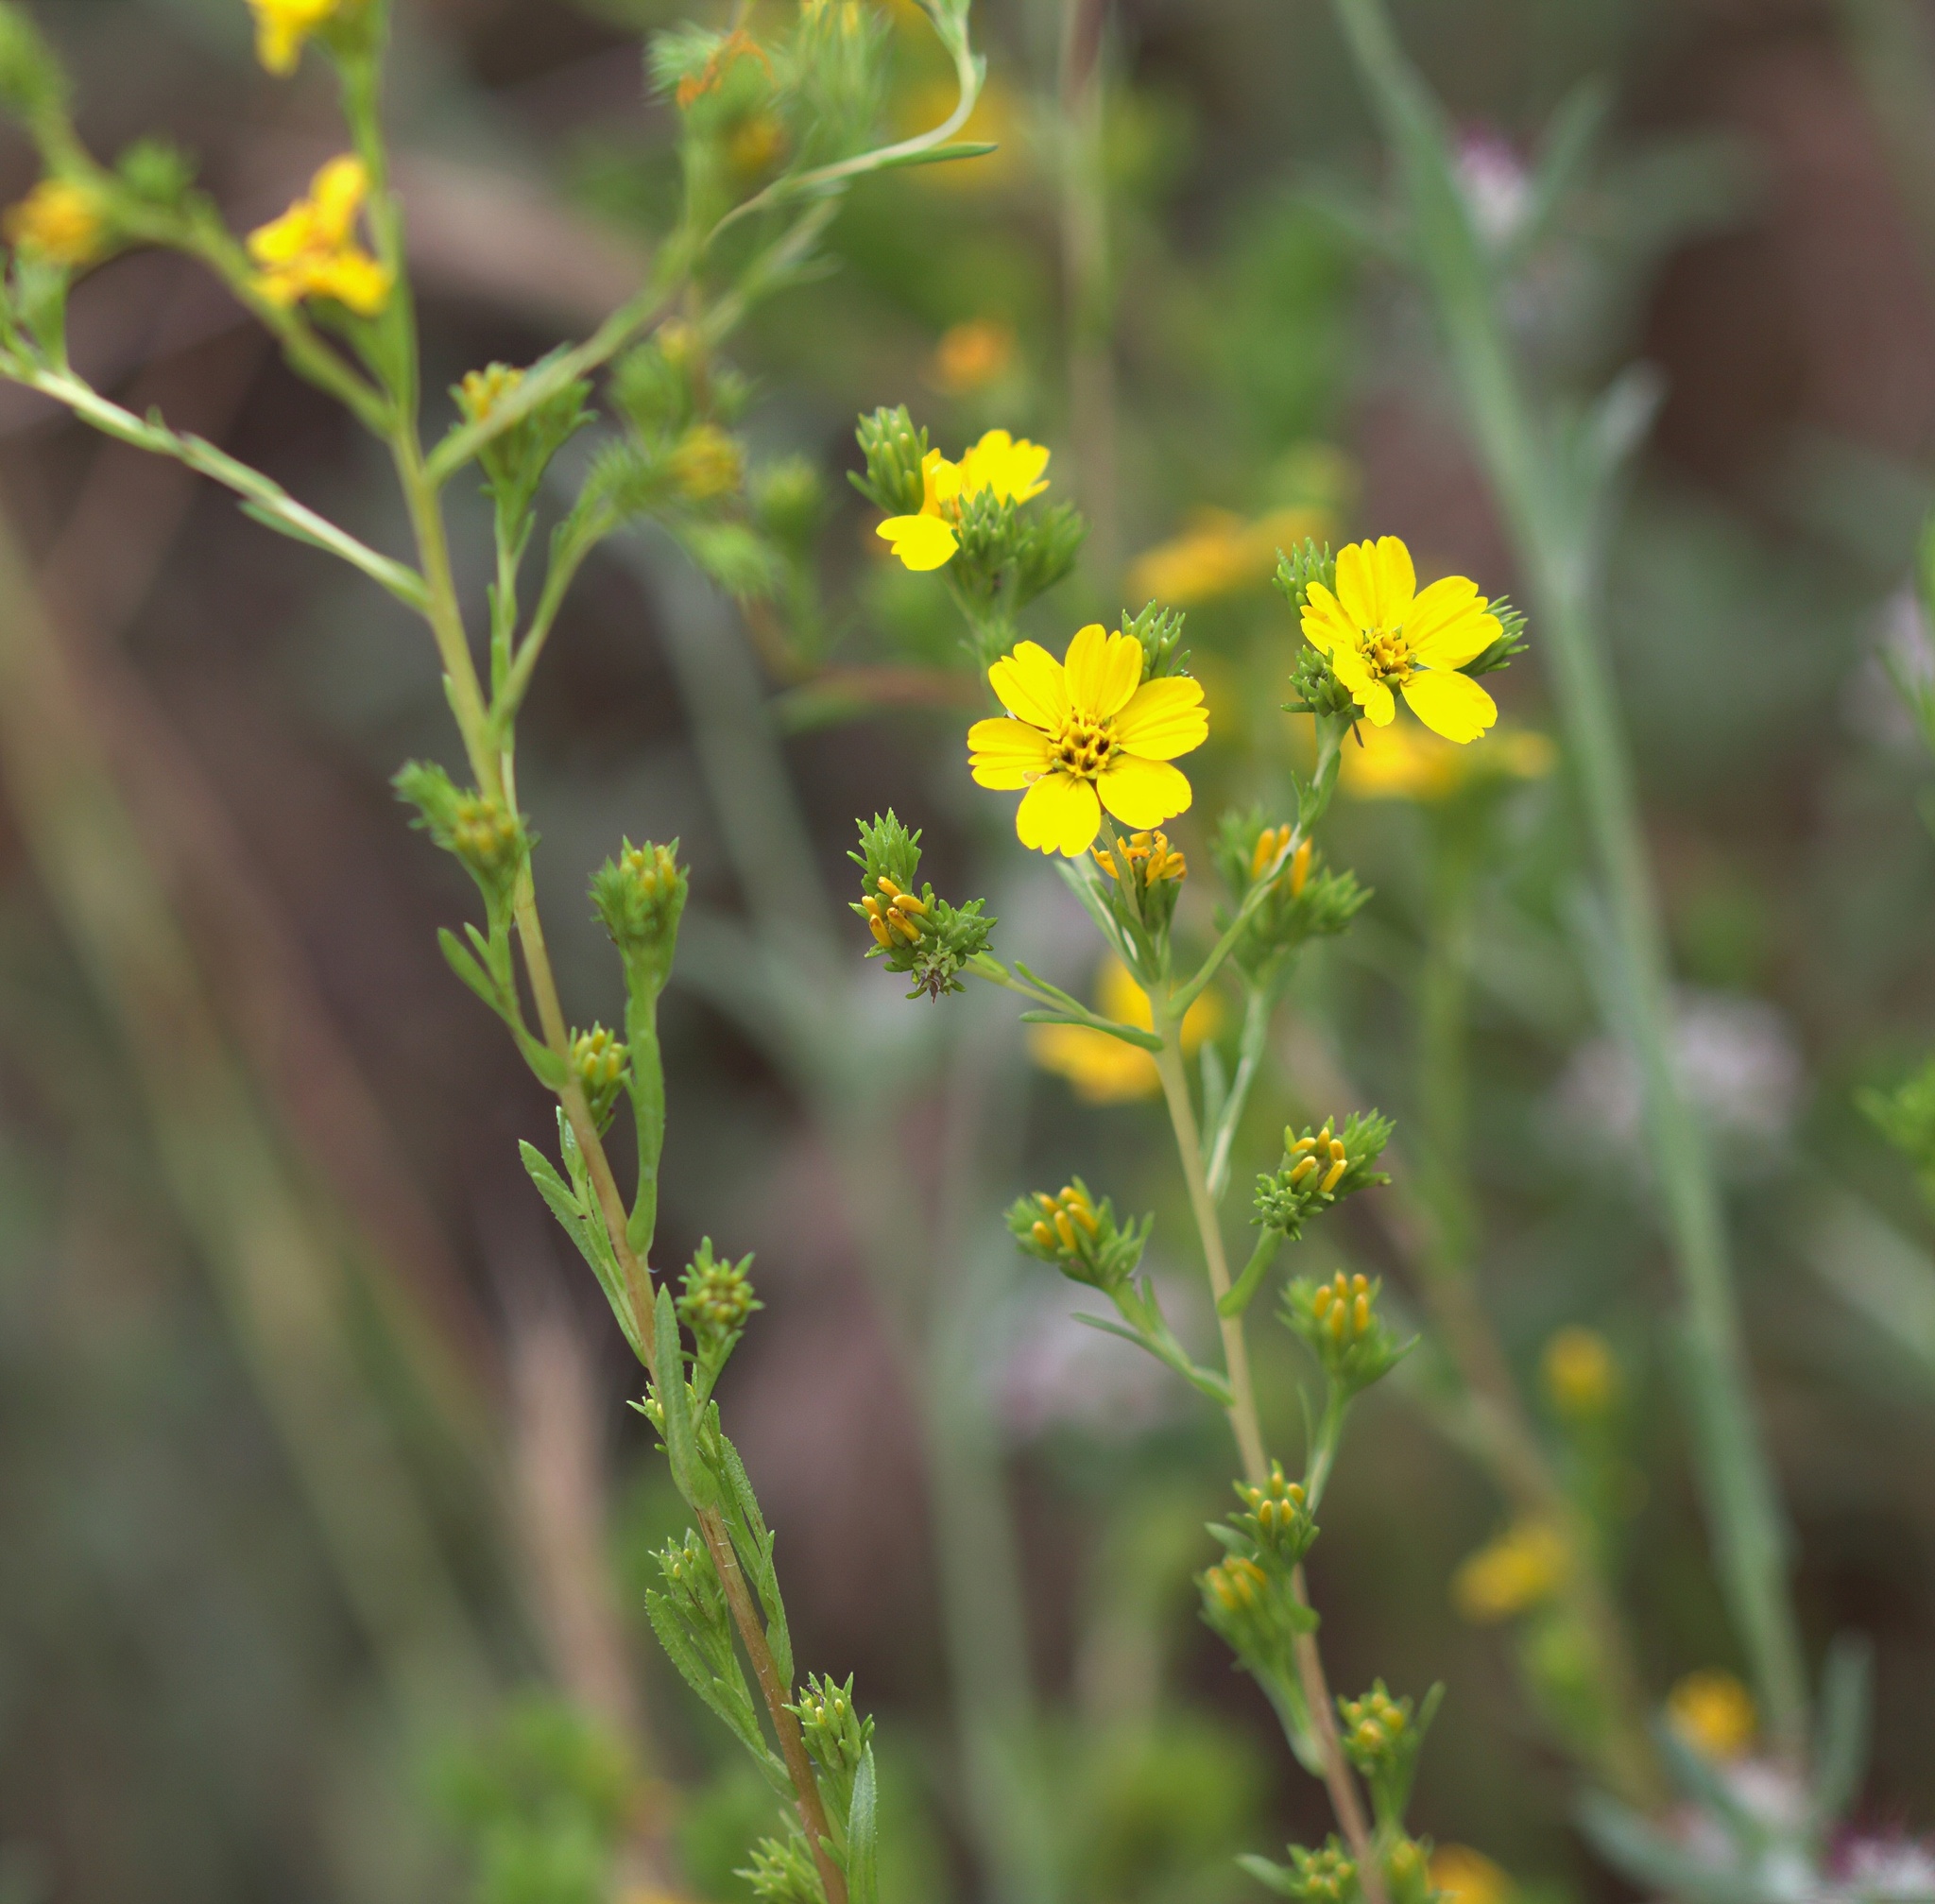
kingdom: Plantae
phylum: Tracheophyta
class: Magnoliopsida
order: Asterales
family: Asteraceae
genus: Deinandra
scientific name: Deinandra fasciculata
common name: Clustered tarweed
